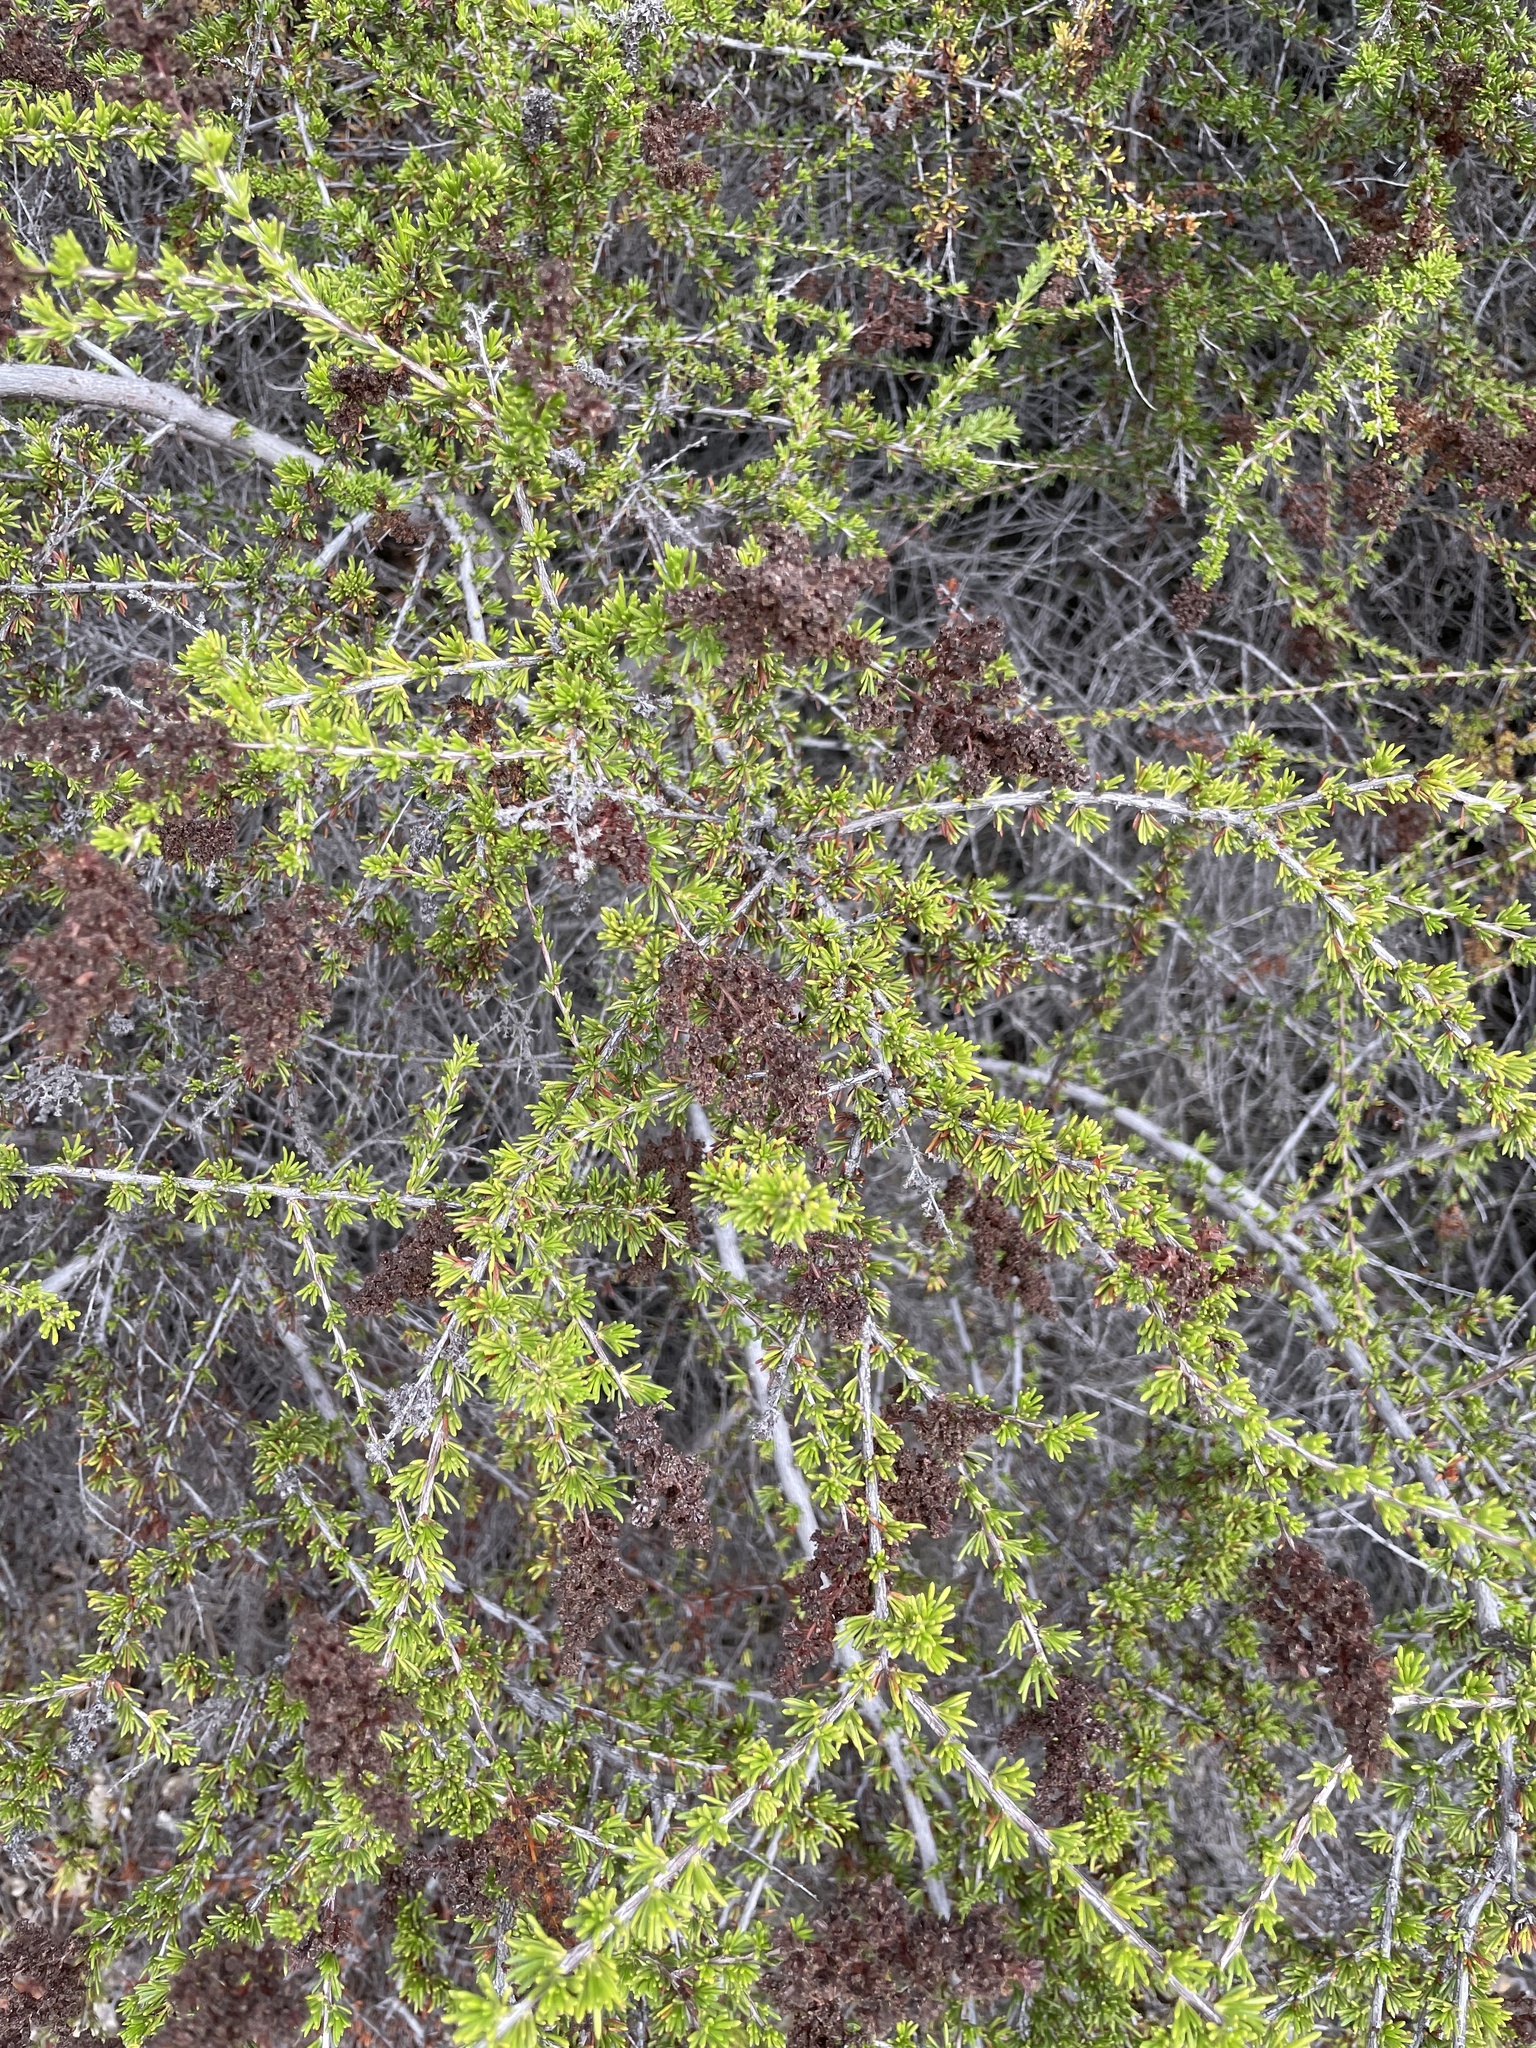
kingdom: Plantae
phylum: Tracheophyta
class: Magnoliopsida
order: Rosales
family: Rosaceae
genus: Adenostoma
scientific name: Adenostoma fasciculatum
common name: Chamise
